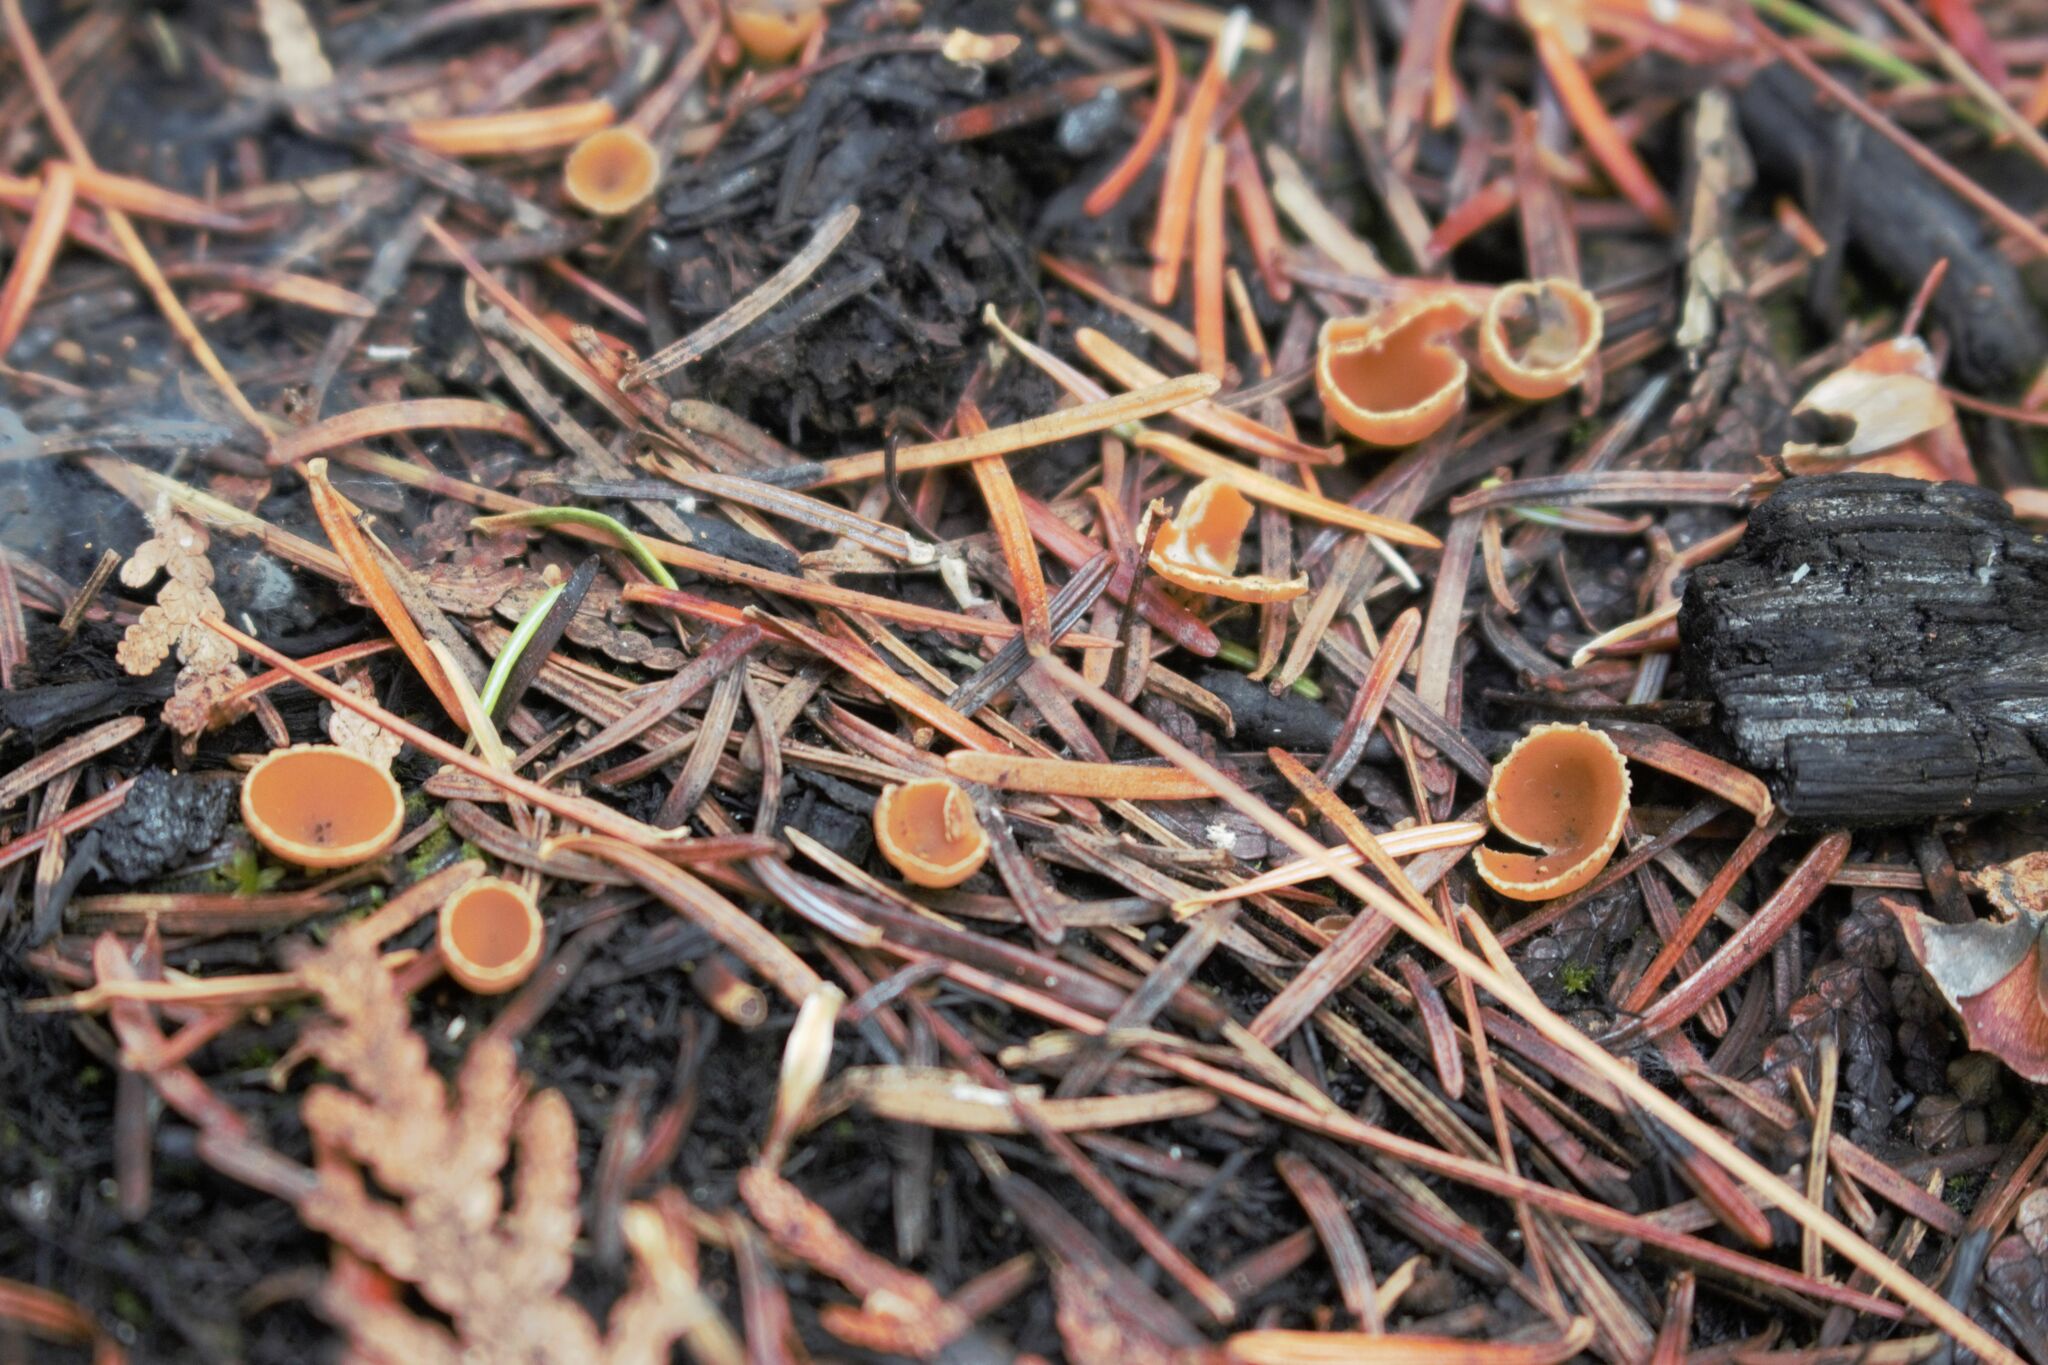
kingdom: Fungi
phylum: Ascomycota
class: Pezizomycetes
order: Pezizales
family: Pyronemataceae
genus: Geopyxis
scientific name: Geopyxis carbonaria
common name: Stalked bonfire cup
